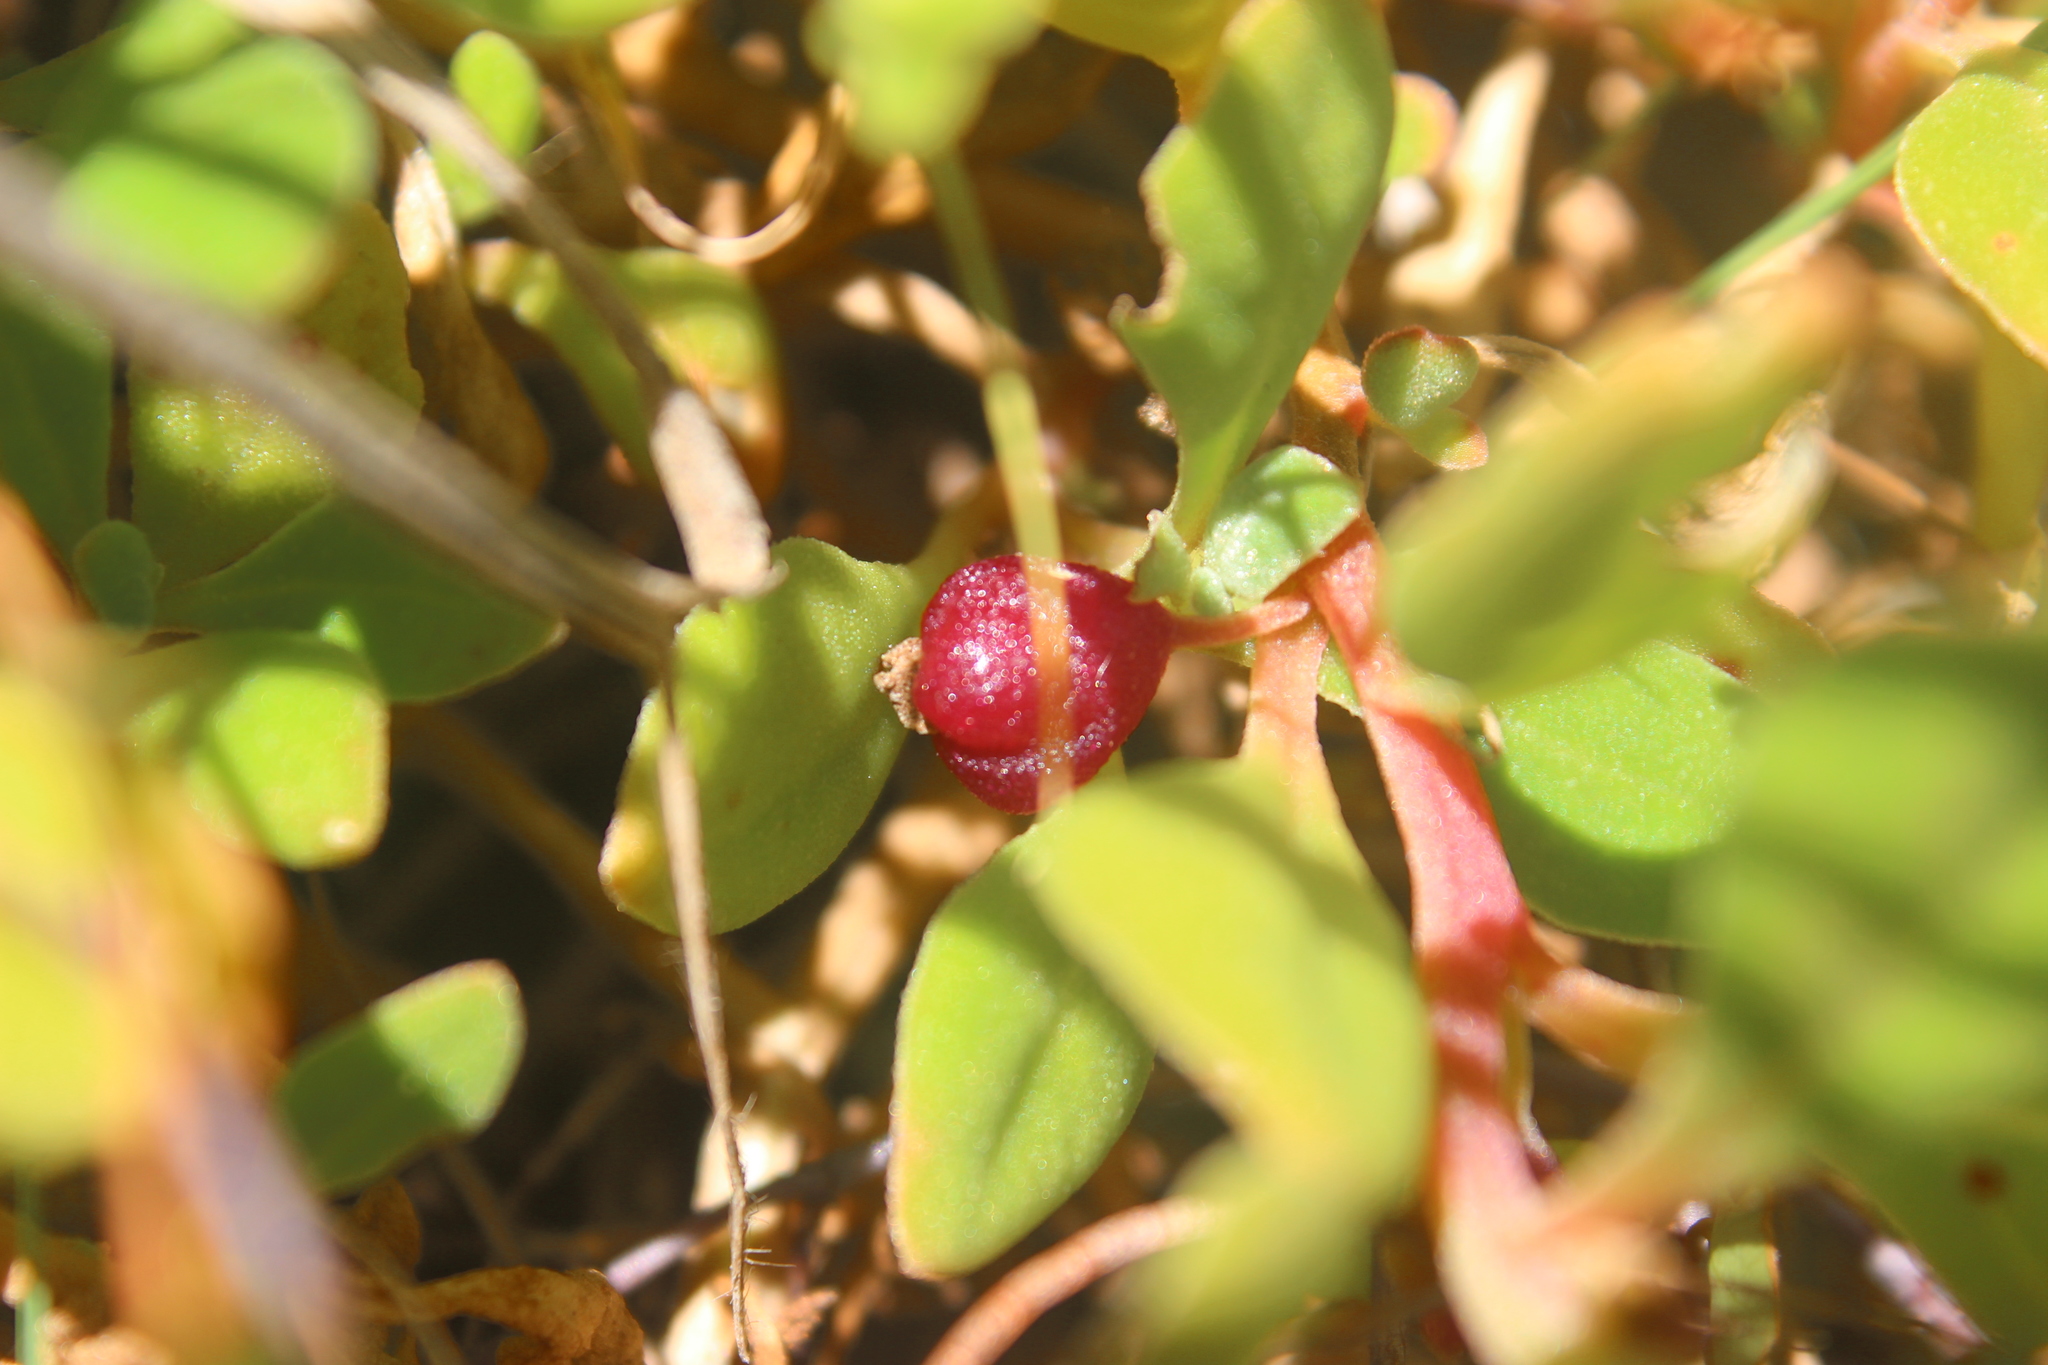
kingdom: Plantae
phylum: Tracheophyta
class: Magnoliopsida
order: Caryophyllales
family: Aizoaceae
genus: Tetragonia
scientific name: Tetragonia implexicoma
